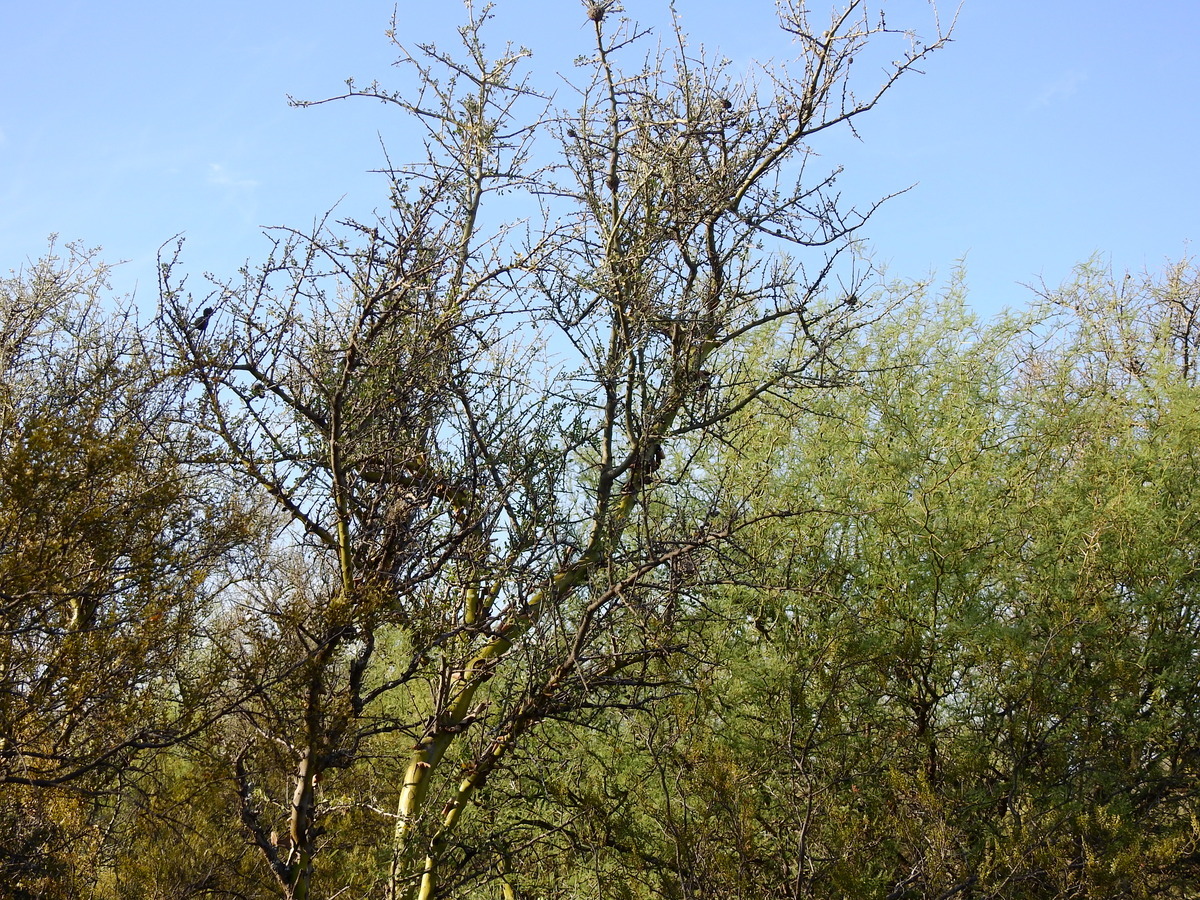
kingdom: Plantae
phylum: Tracheophyta
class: Magnoliopsida
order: Fabales
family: Fabaceae
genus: Geoffroea
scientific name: Geoffroea decorticans
